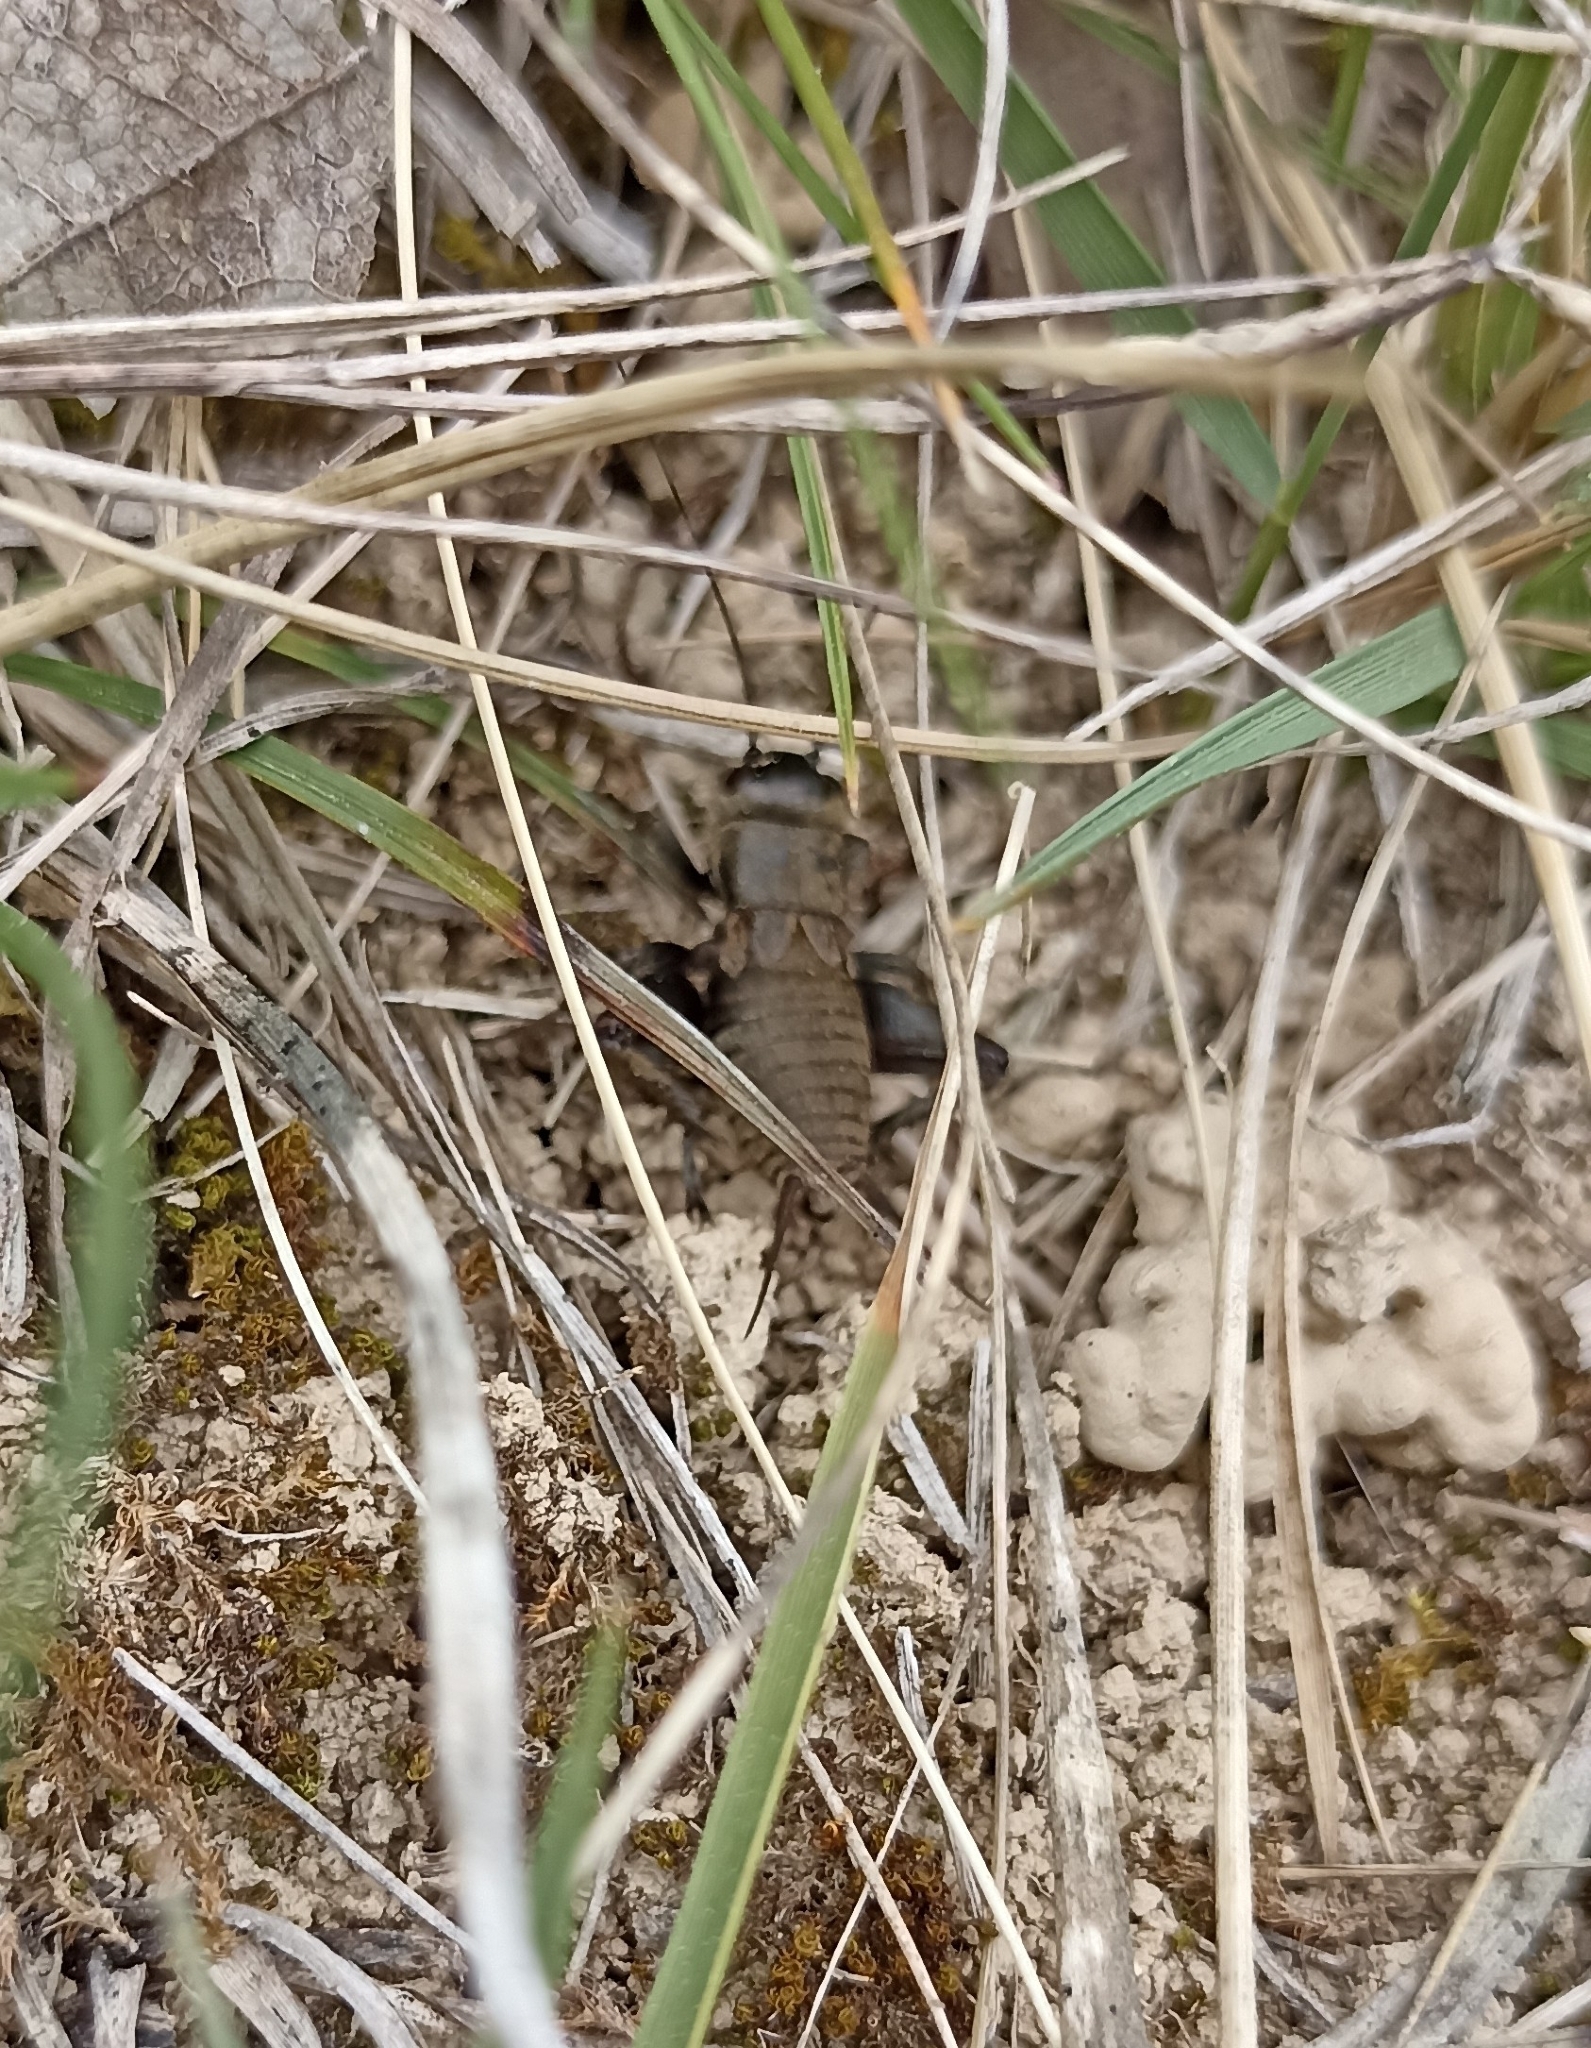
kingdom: Animalia
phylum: Arthropoda
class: Insecta
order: Orthoptera
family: Gryllidae
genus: Gryllus
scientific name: Gryllus campestris
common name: Field cricket
